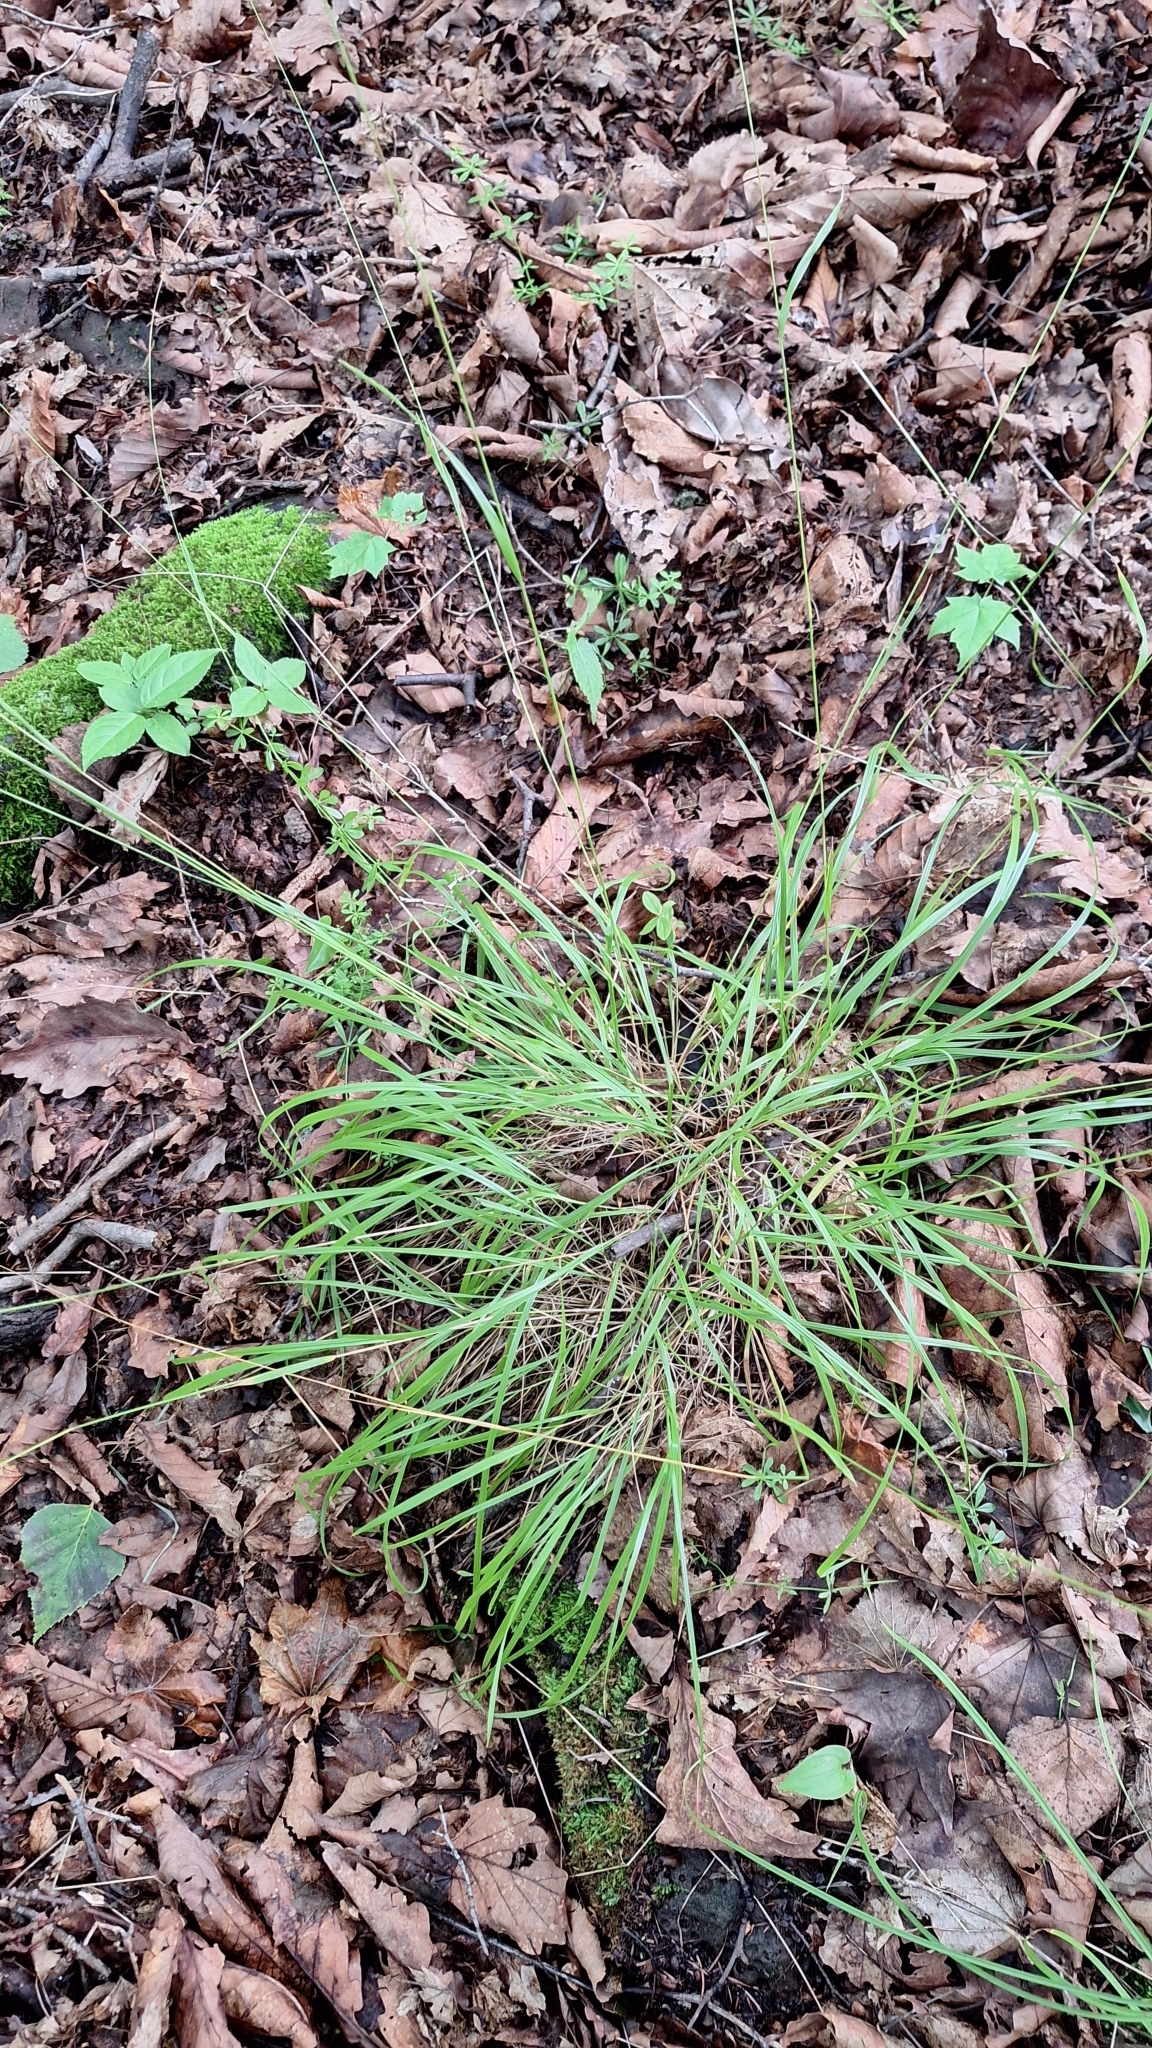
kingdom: Plantae
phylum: Tracheophyta
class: Liliopsida
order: Poales
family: Poaceae
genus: Schizachne
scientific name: Schizachne purpurascens
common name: False melic
